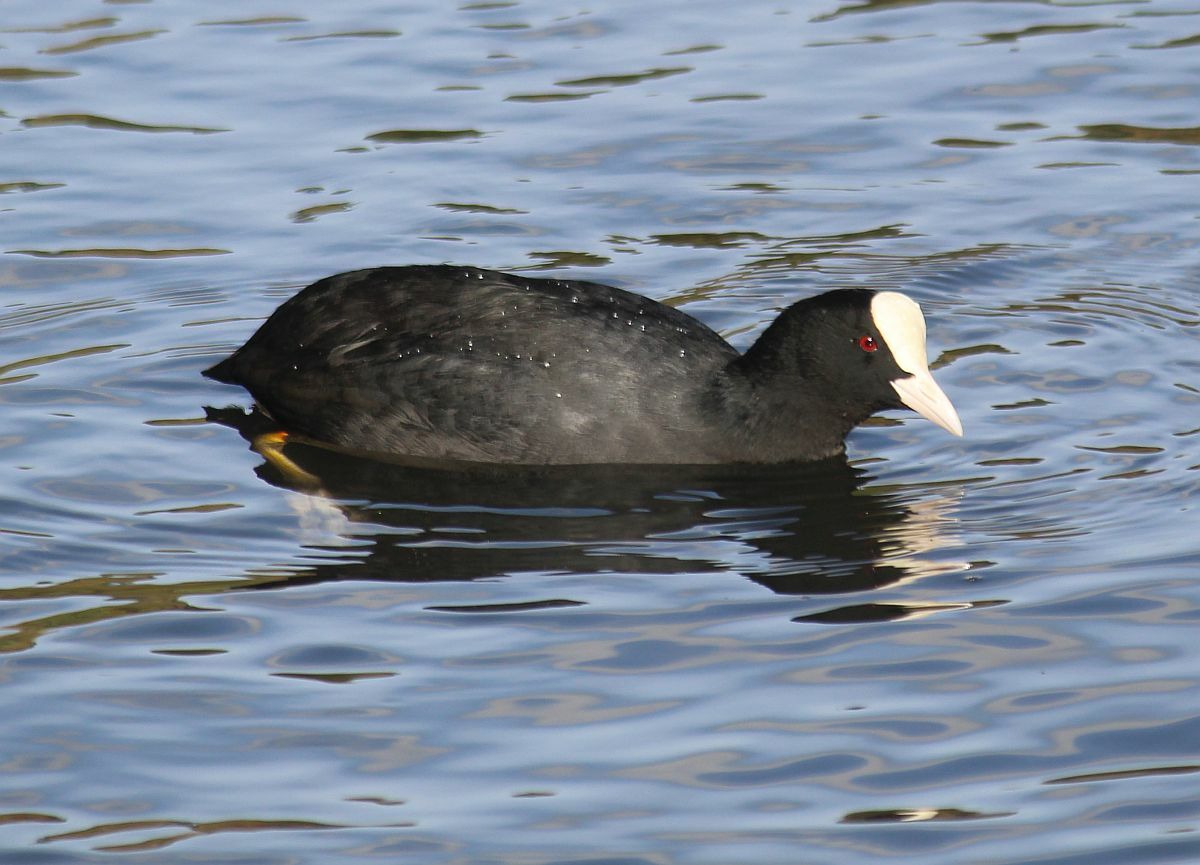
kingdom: Animalia
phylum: Chordata
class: Aves
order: Gruiformes
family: Rallidae
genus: Fulica
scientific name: Fulica atra
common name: Eurasian coot
